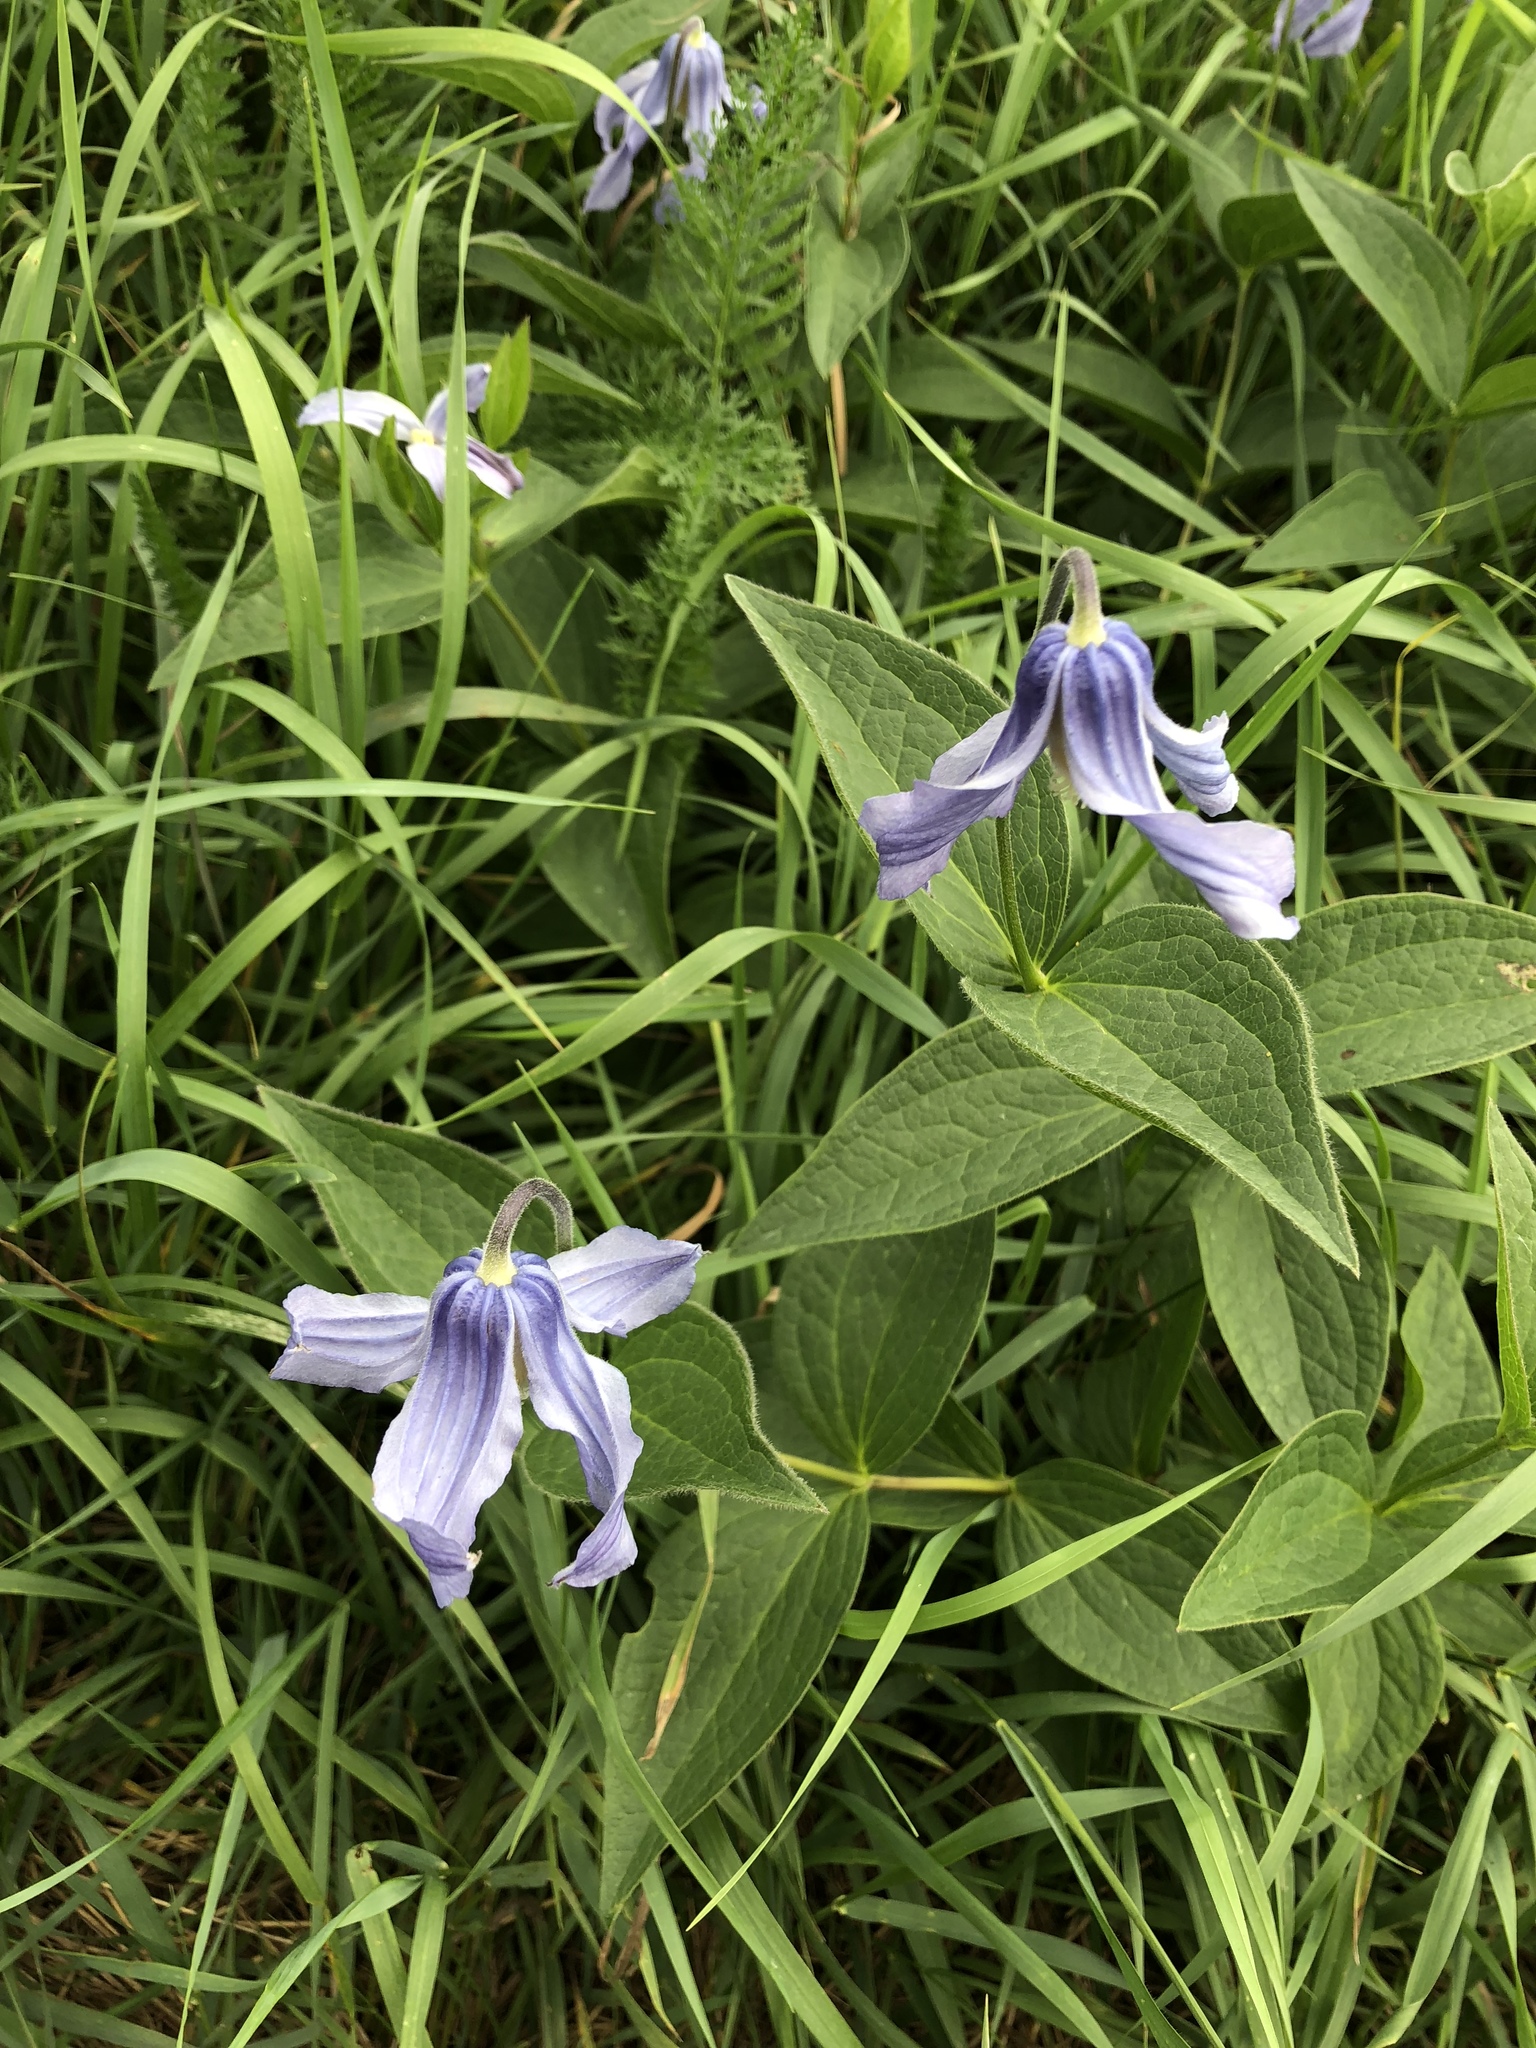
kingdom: Plantae
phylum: Tracheophyta
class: Magnoliopsida
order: Ranunculales
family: Ranunculaceae
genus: Clematis
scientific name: Clematis integrifolia
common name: Solitary clematis
